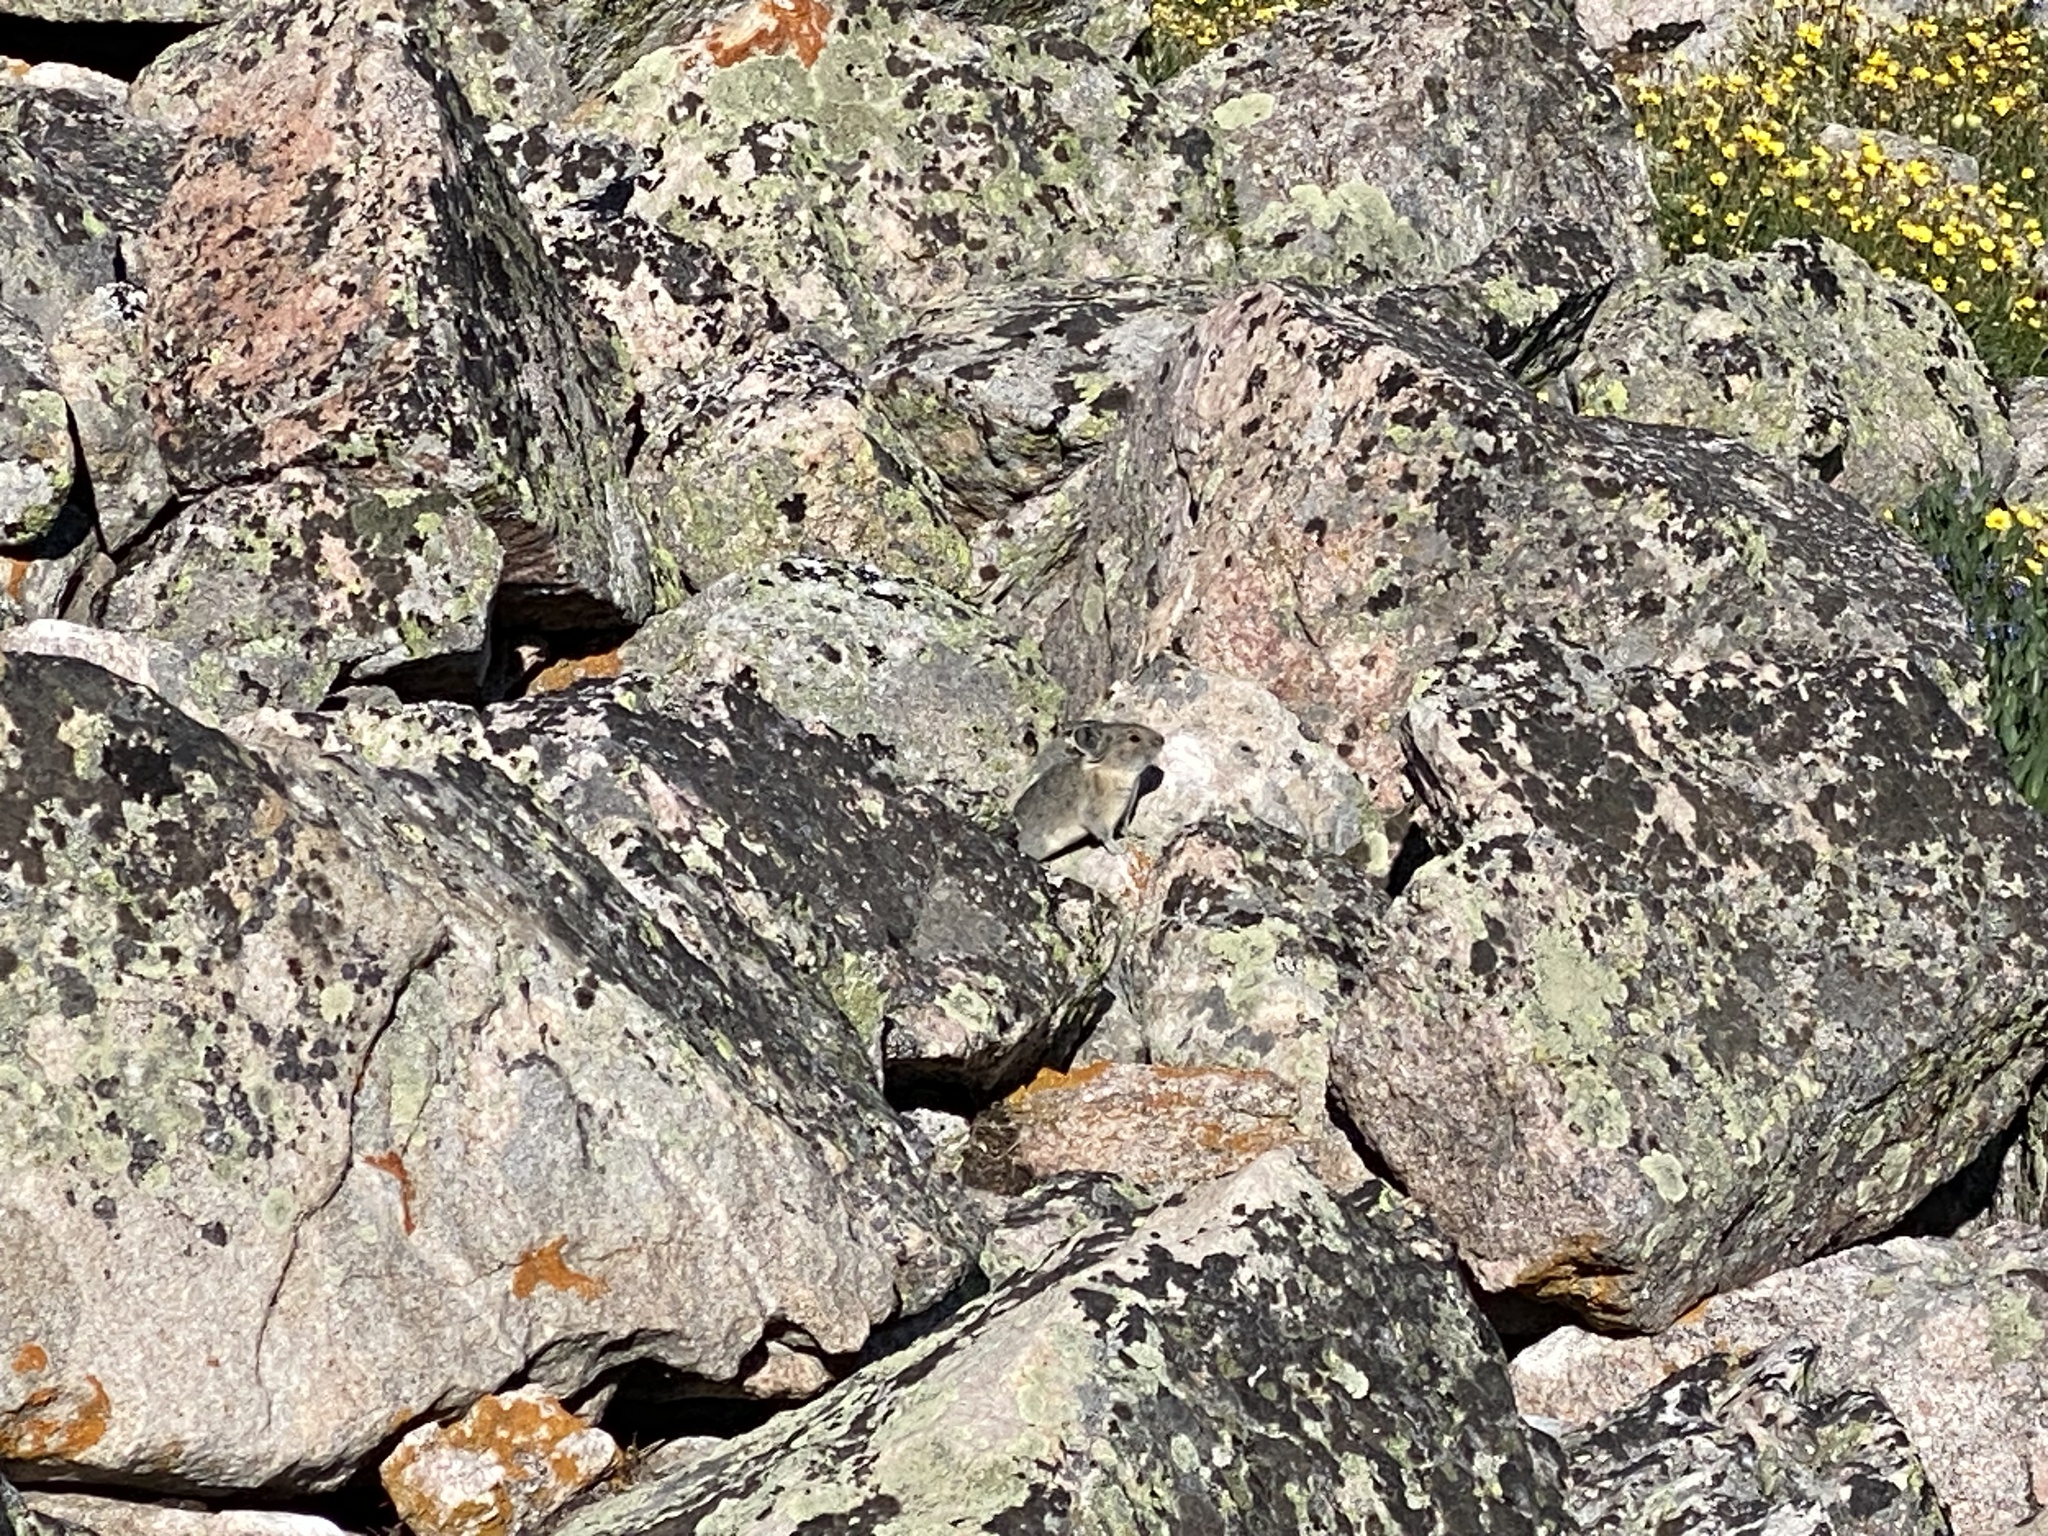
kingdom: Animalia
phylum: Chordata
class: Mammalia
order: Lagomorpha
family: Ochotonidae
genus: Ochotona
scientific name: Ochotona princeps
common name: American pika
